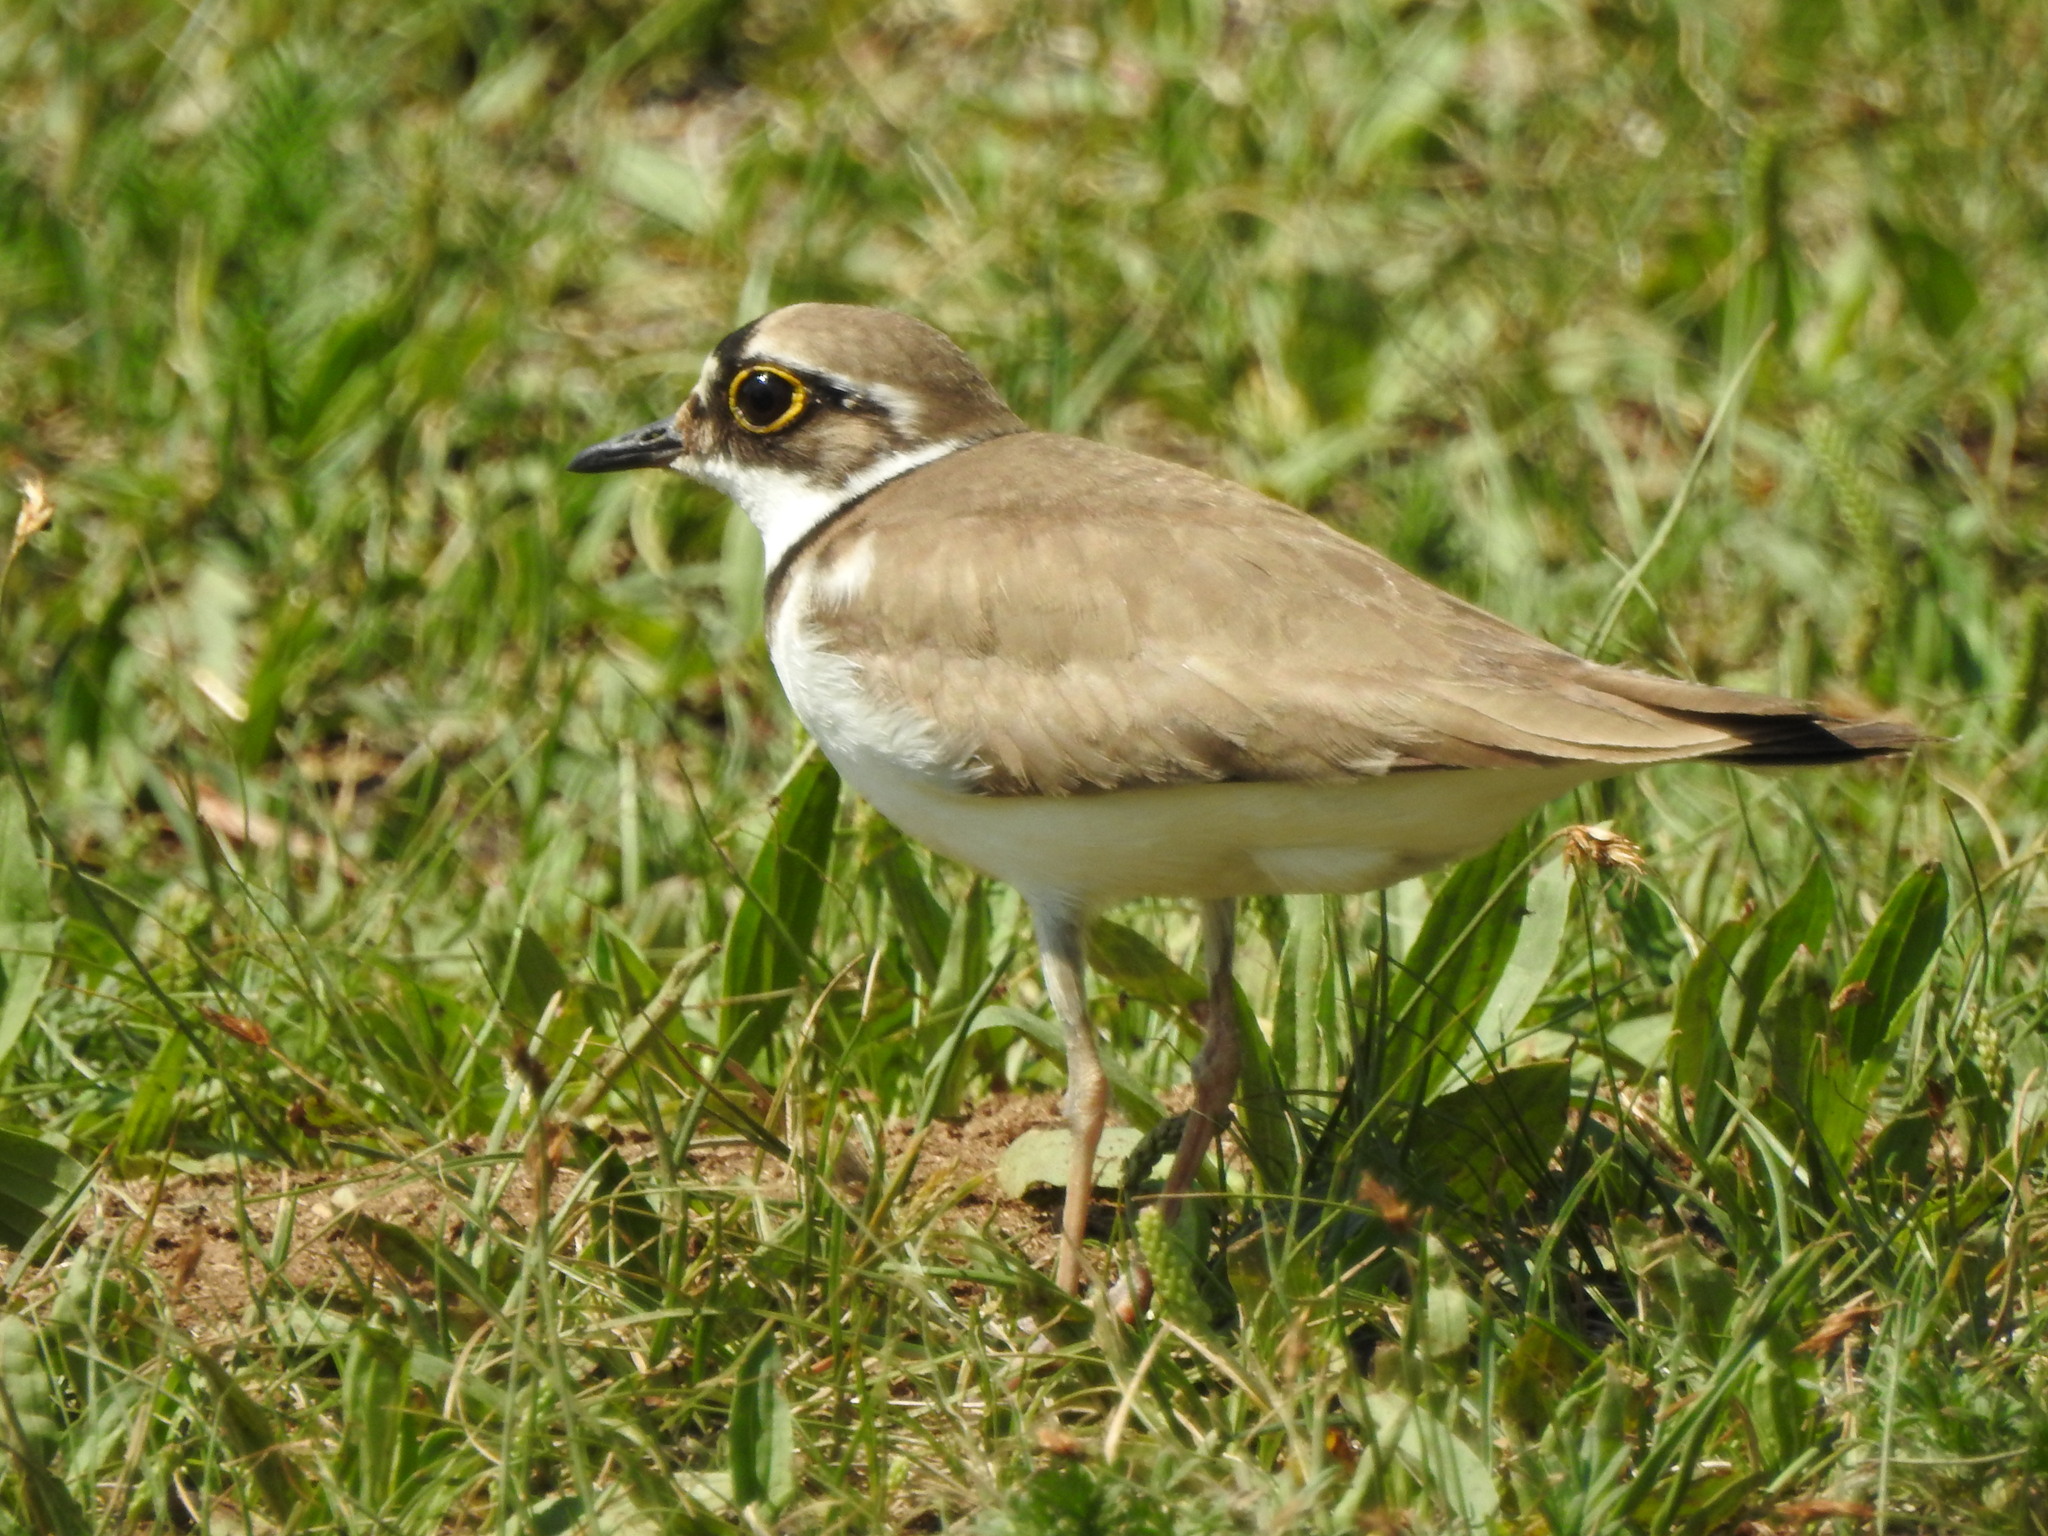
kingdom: Animalia
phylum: Chordata
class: Aves
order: Charadriiformes
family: Charadriidae
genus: Charadrius
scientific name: Charadrius dubius
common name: Little ringed plover
